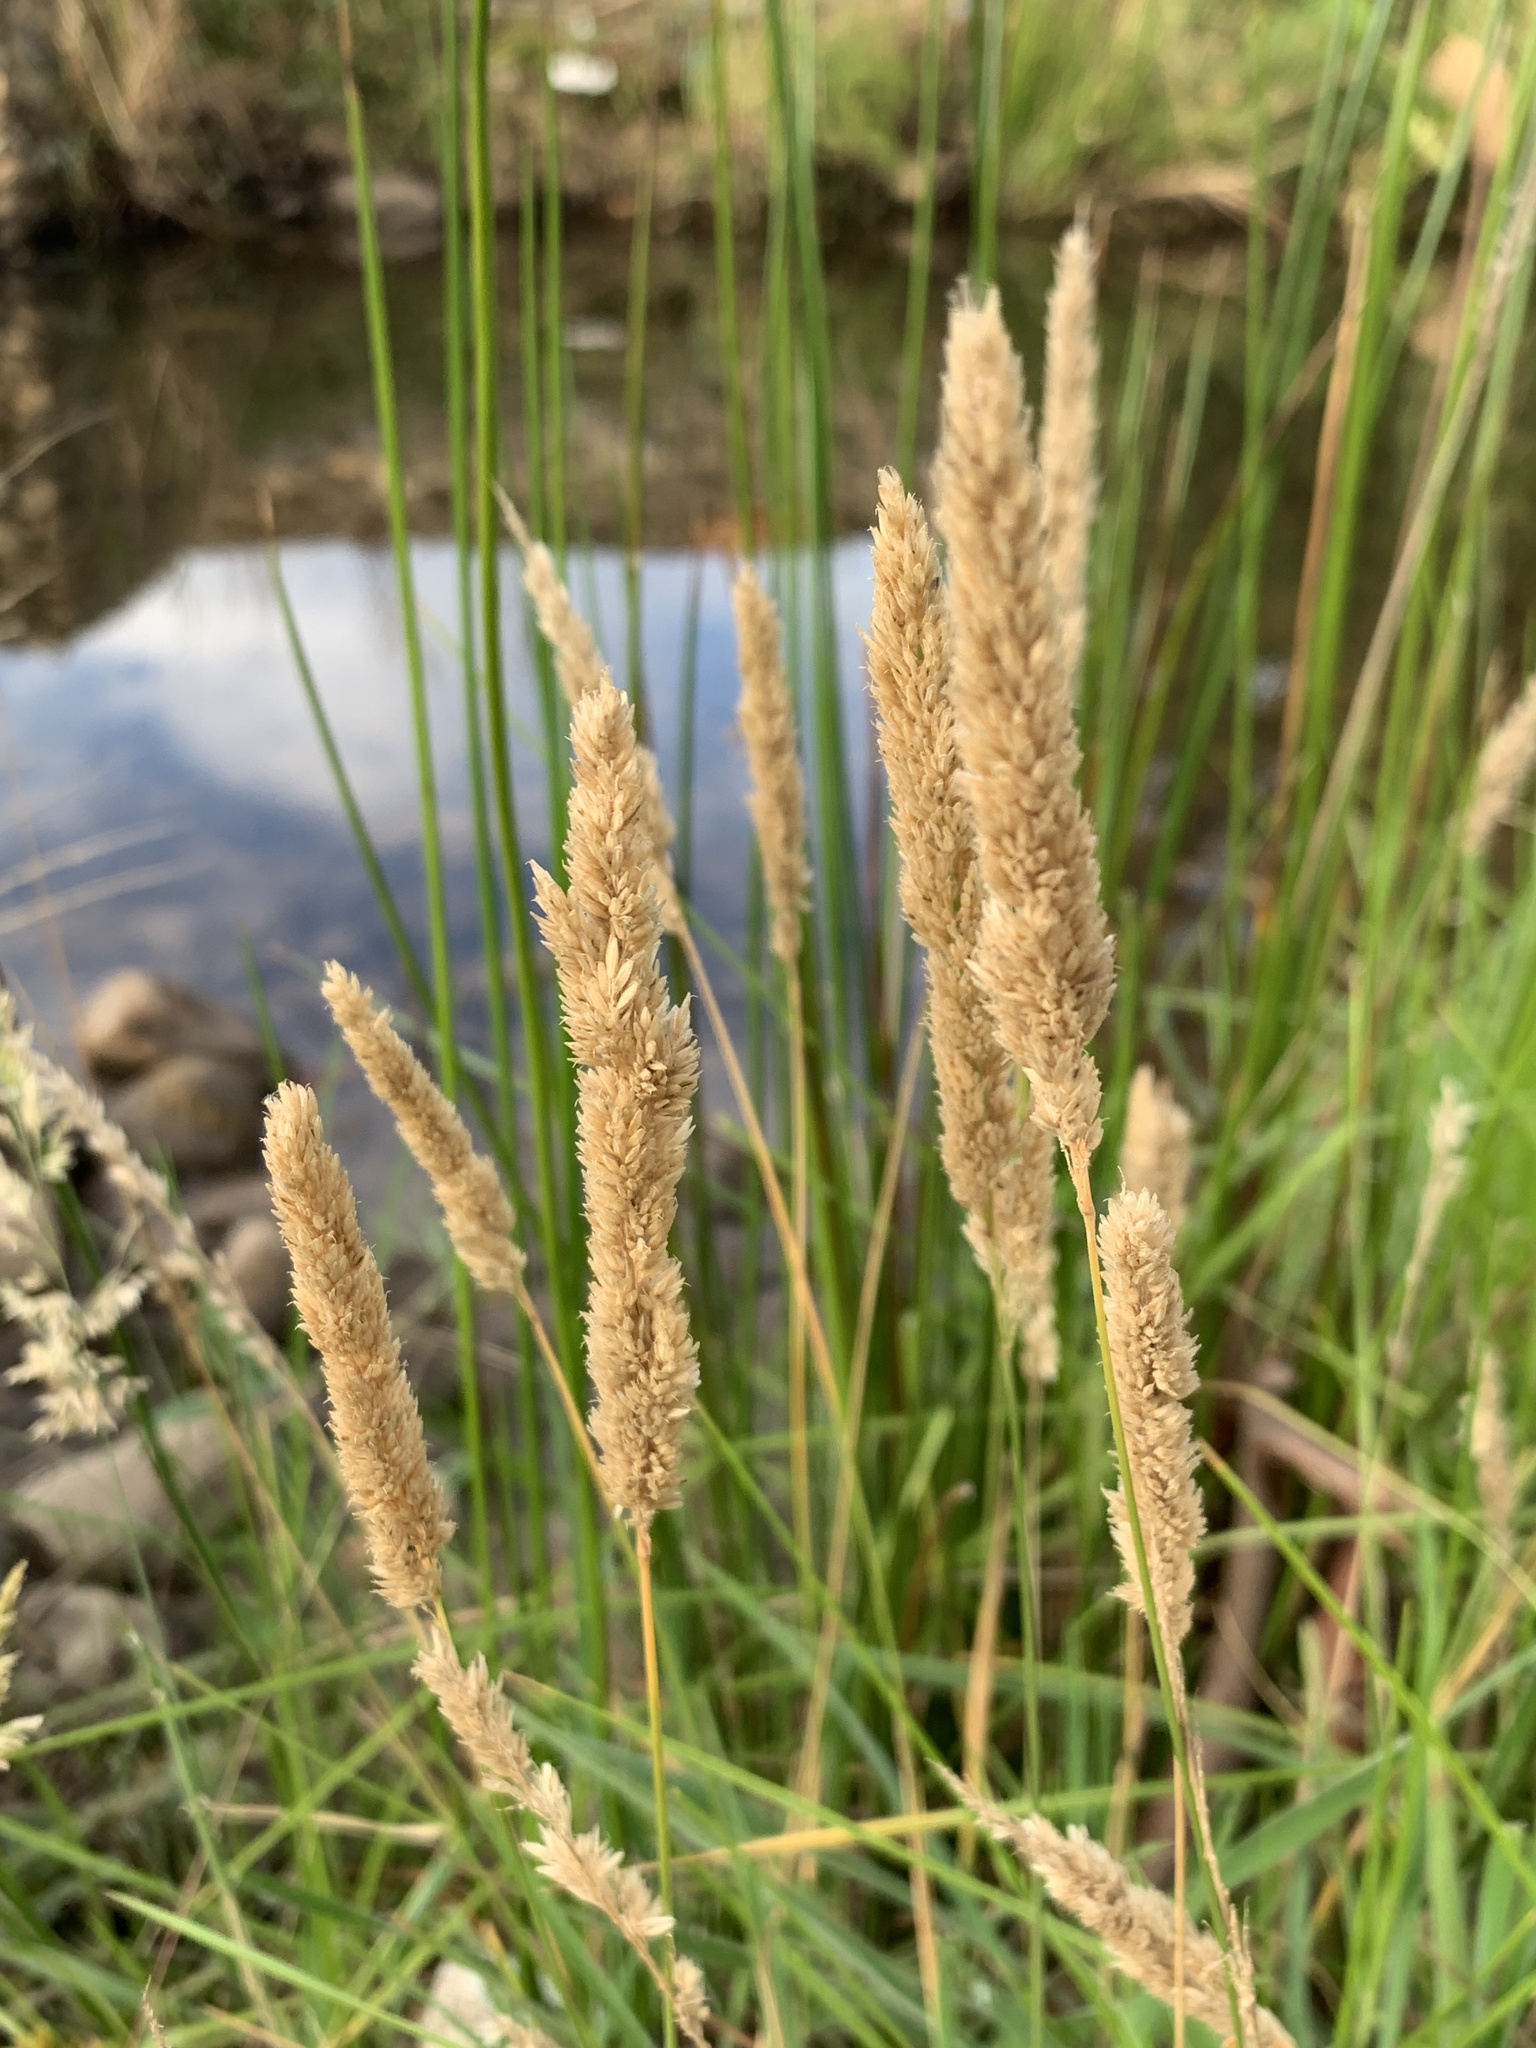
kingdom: Plantae
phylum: Tracheophyta
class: Liliopsida
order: Poales
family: Poaceae
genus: Holcus
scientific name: Holcus lanatus
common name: Yorkshire-fog
